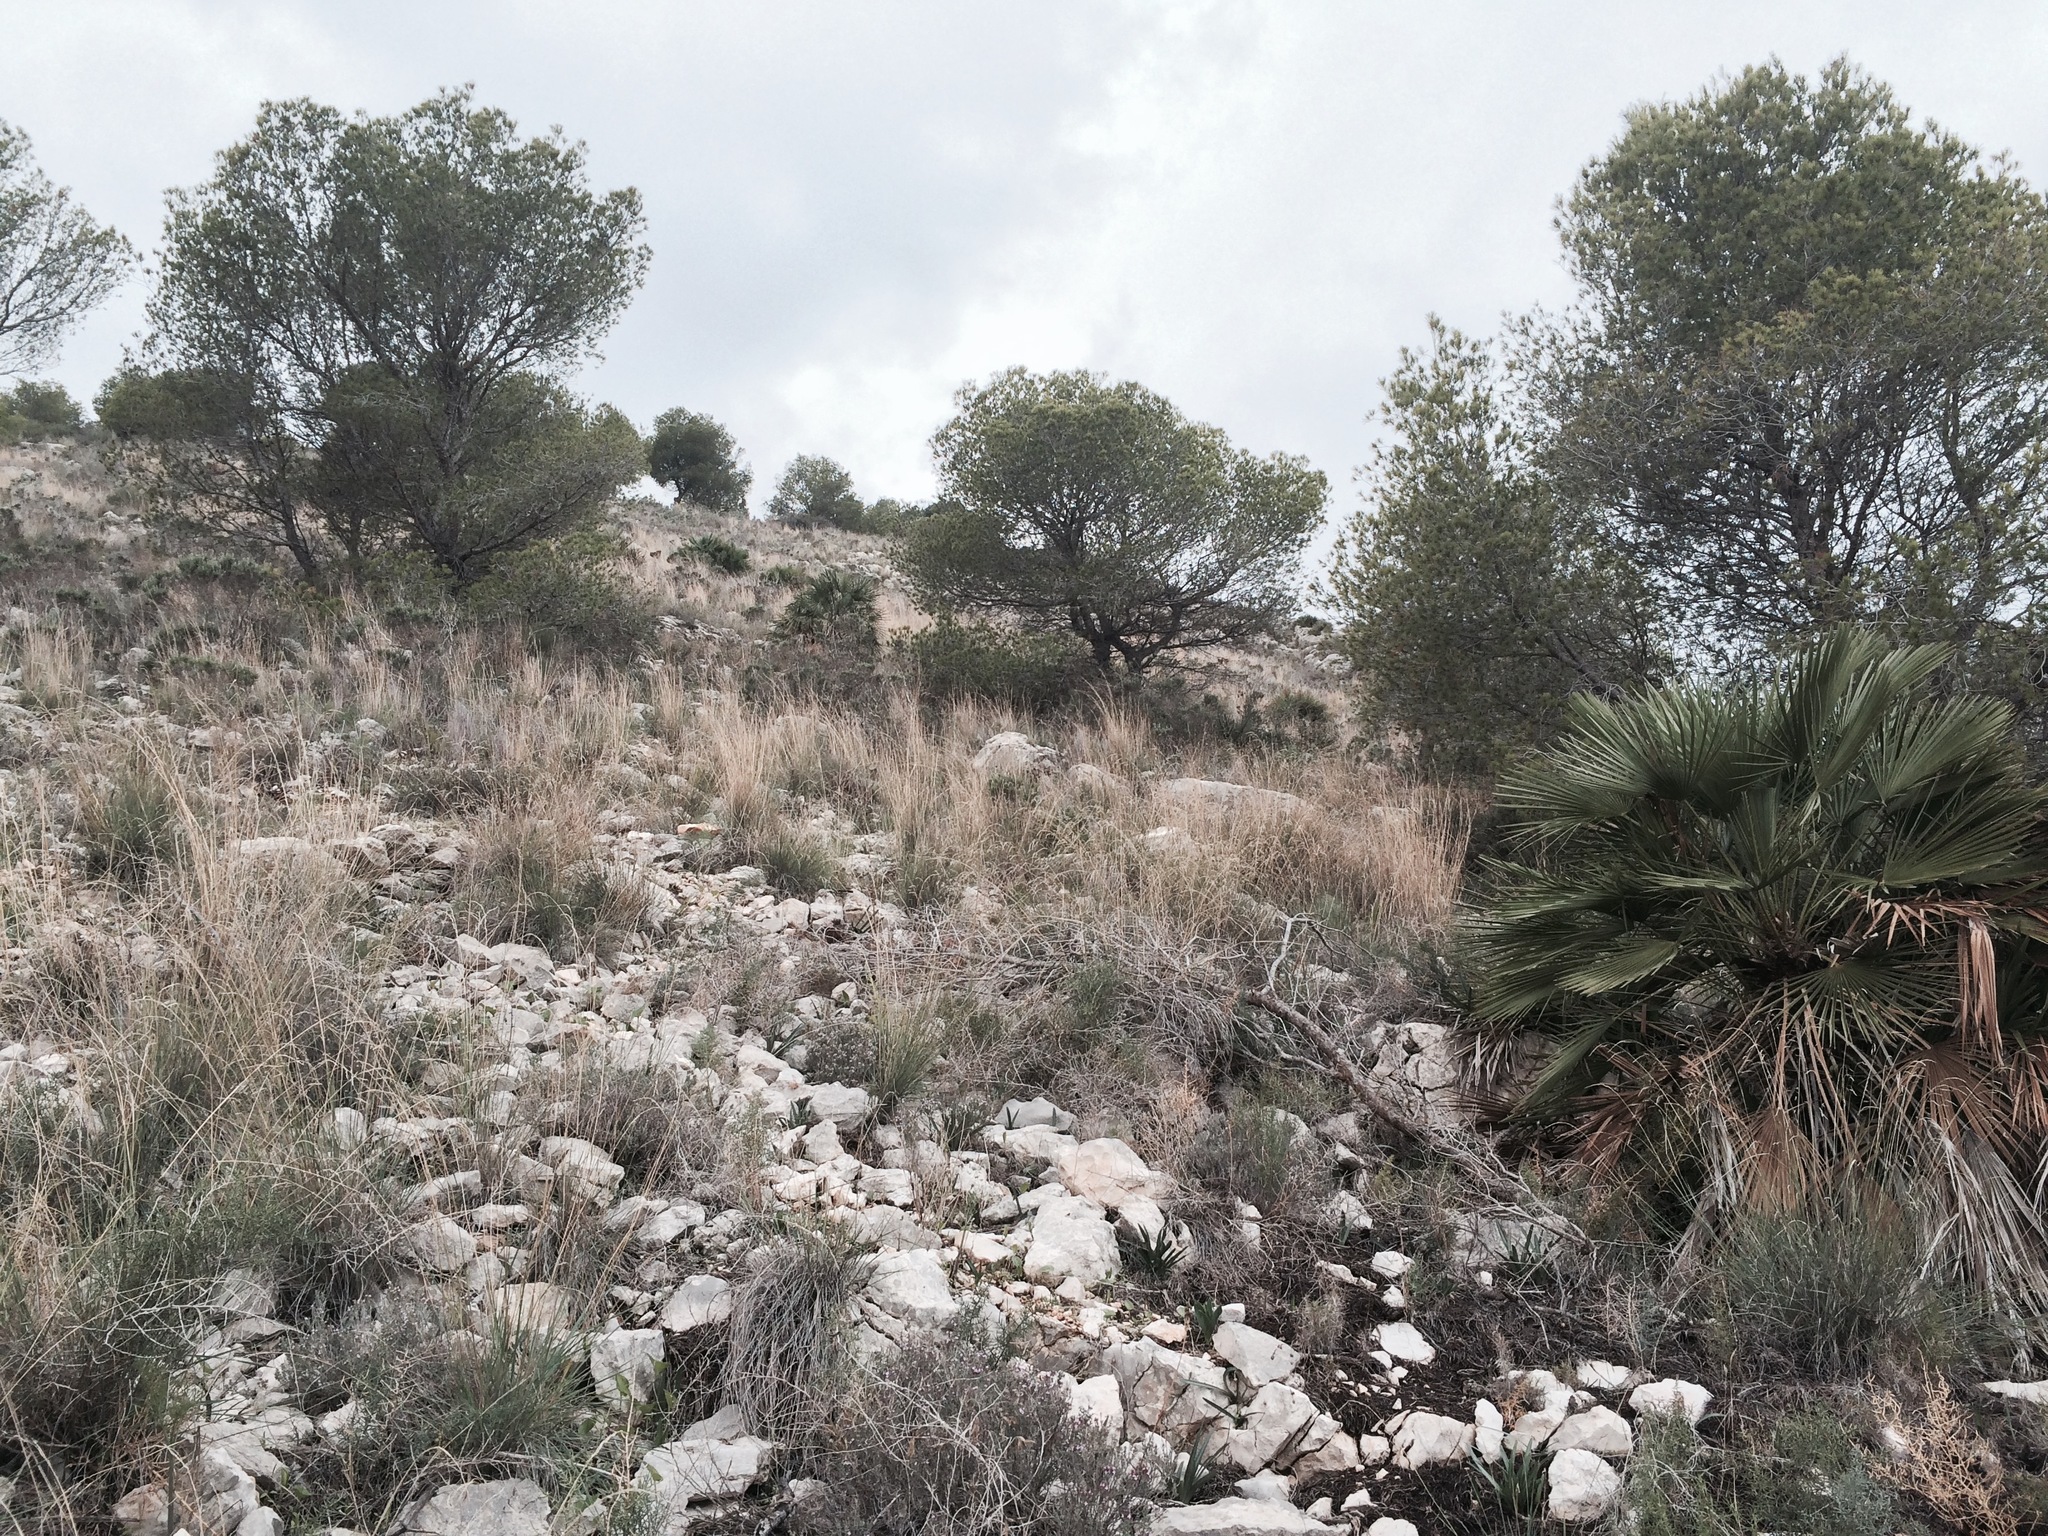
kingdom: Plantae
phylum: Tracheophyta
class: Liliopsida
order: Arecales
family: Arecaceae
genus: Chamaerops
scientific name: Chamaerops humilis
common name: Dwarf fan palm
